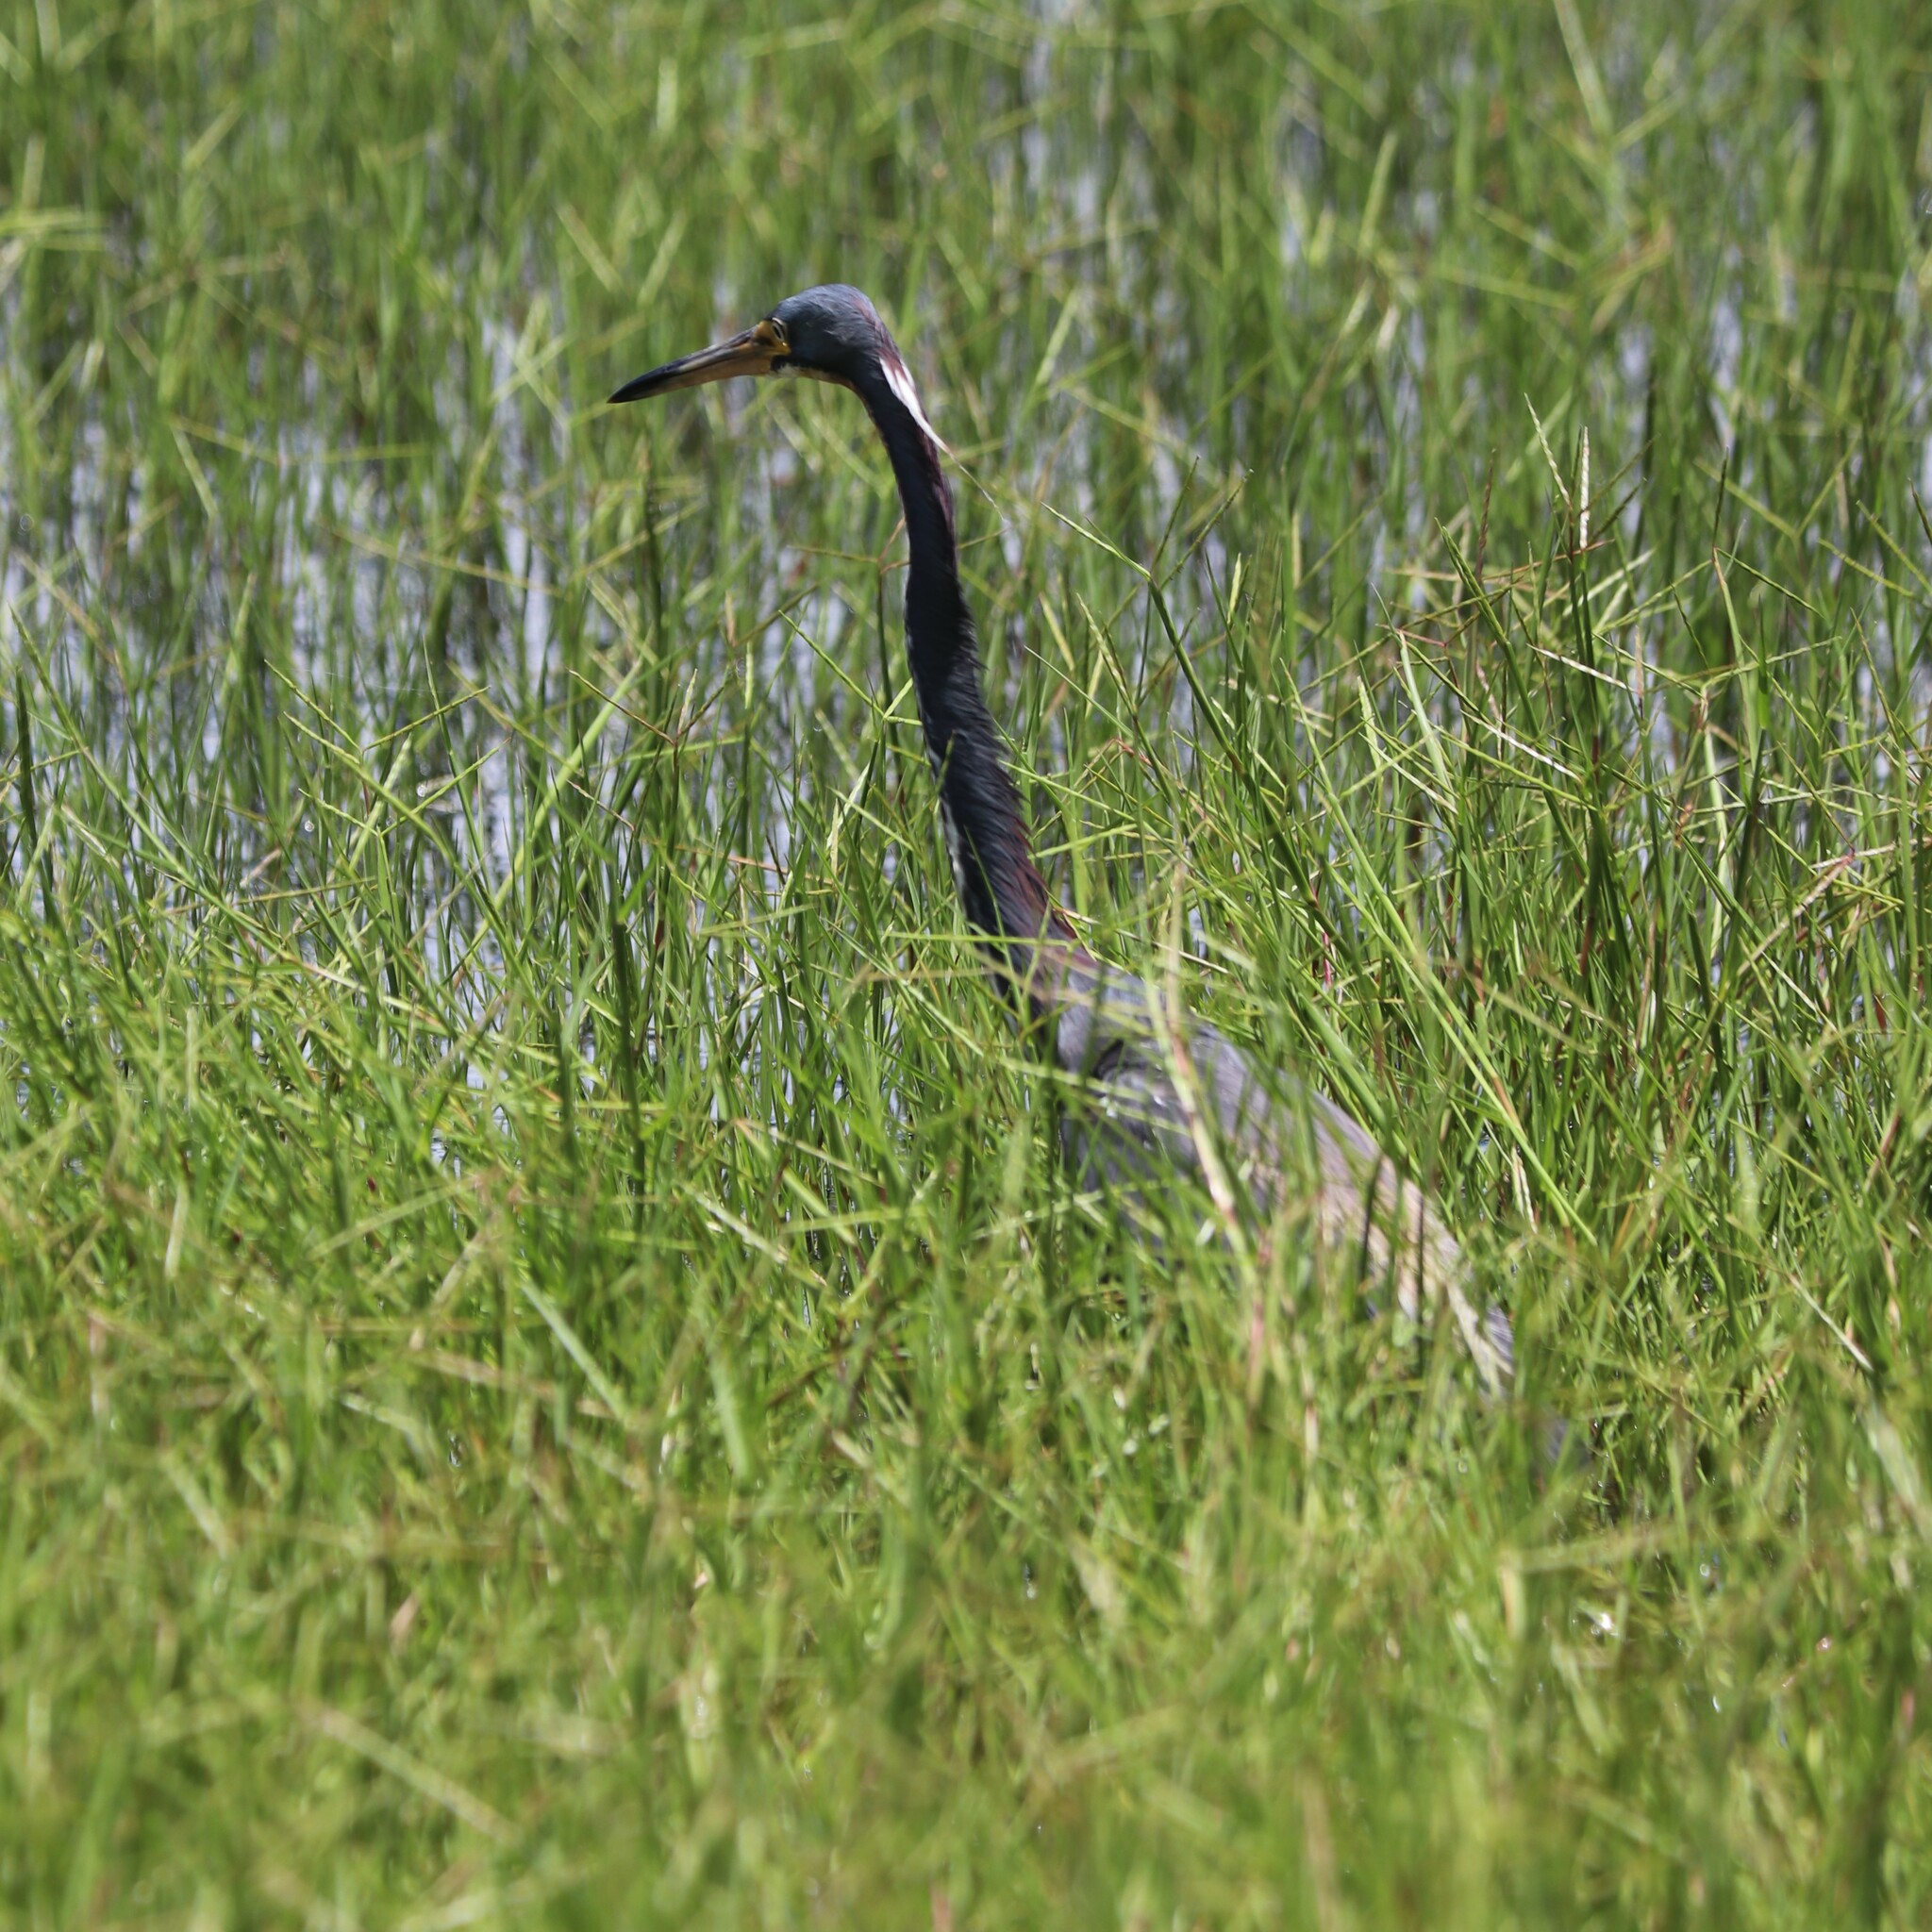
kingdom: Animalia
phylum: Chordata
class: Aves
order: Pelecaniformes
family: Ardeidae
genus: Egretta
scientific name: Egretta tricolor
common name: Tricolored heron
